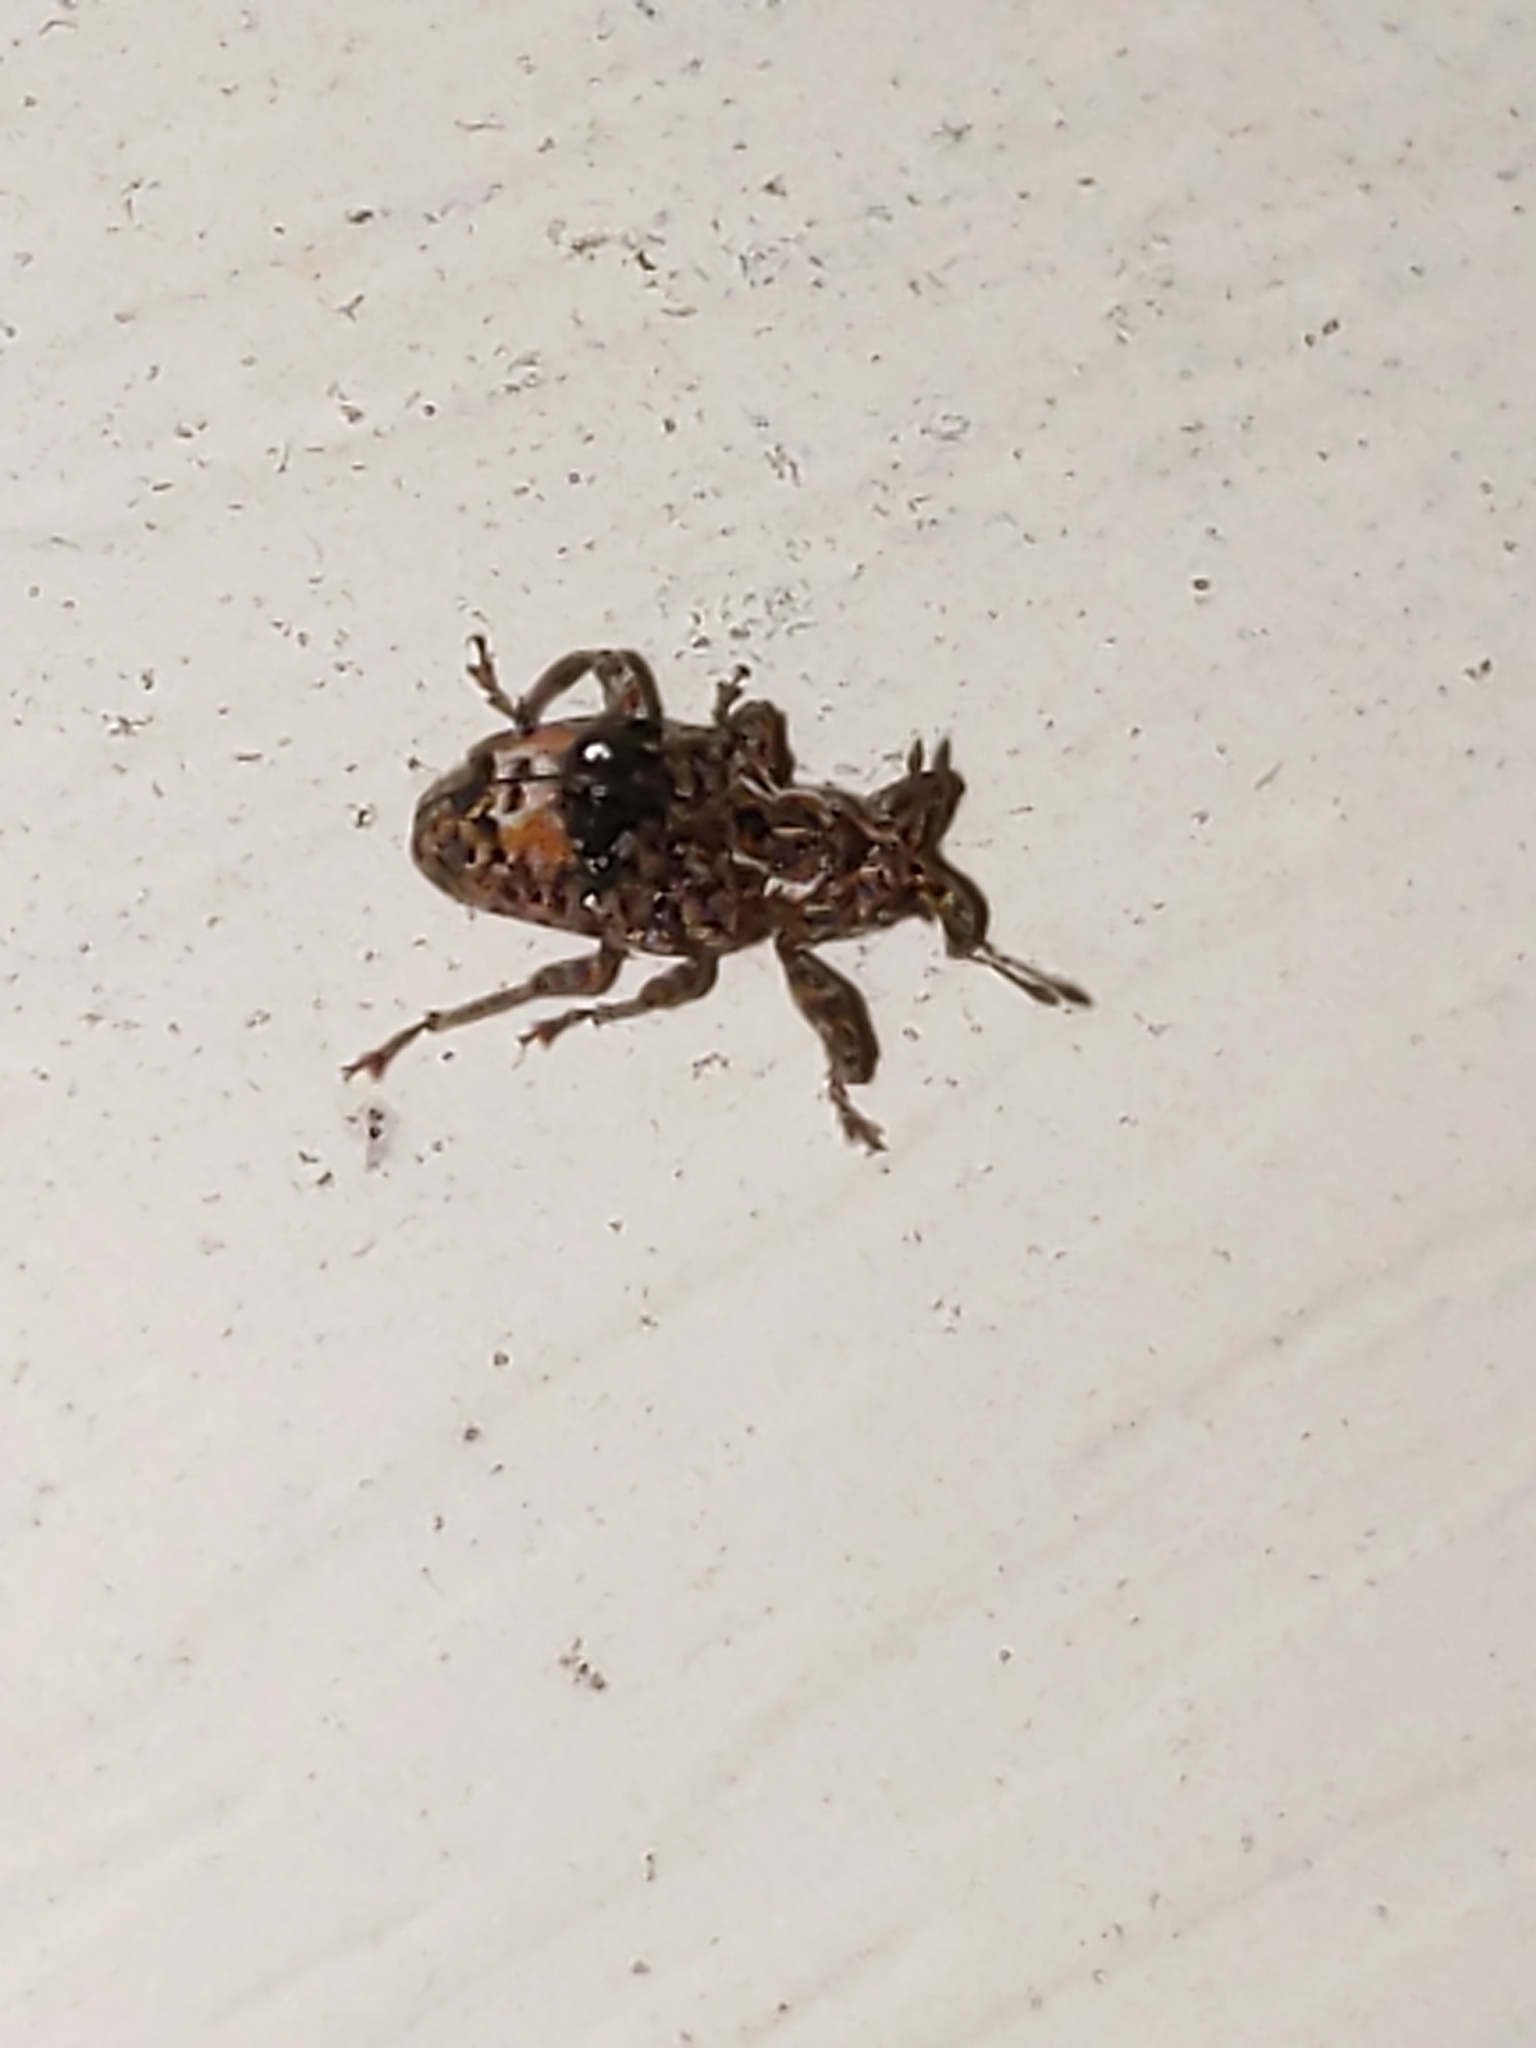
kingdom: Animalia
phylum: Arthropoda
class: Insecta
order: Coleoptera
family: Curculionidae
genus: Conotrachelus
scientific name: Conotrachelus nenuphar
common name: Plum curculio
